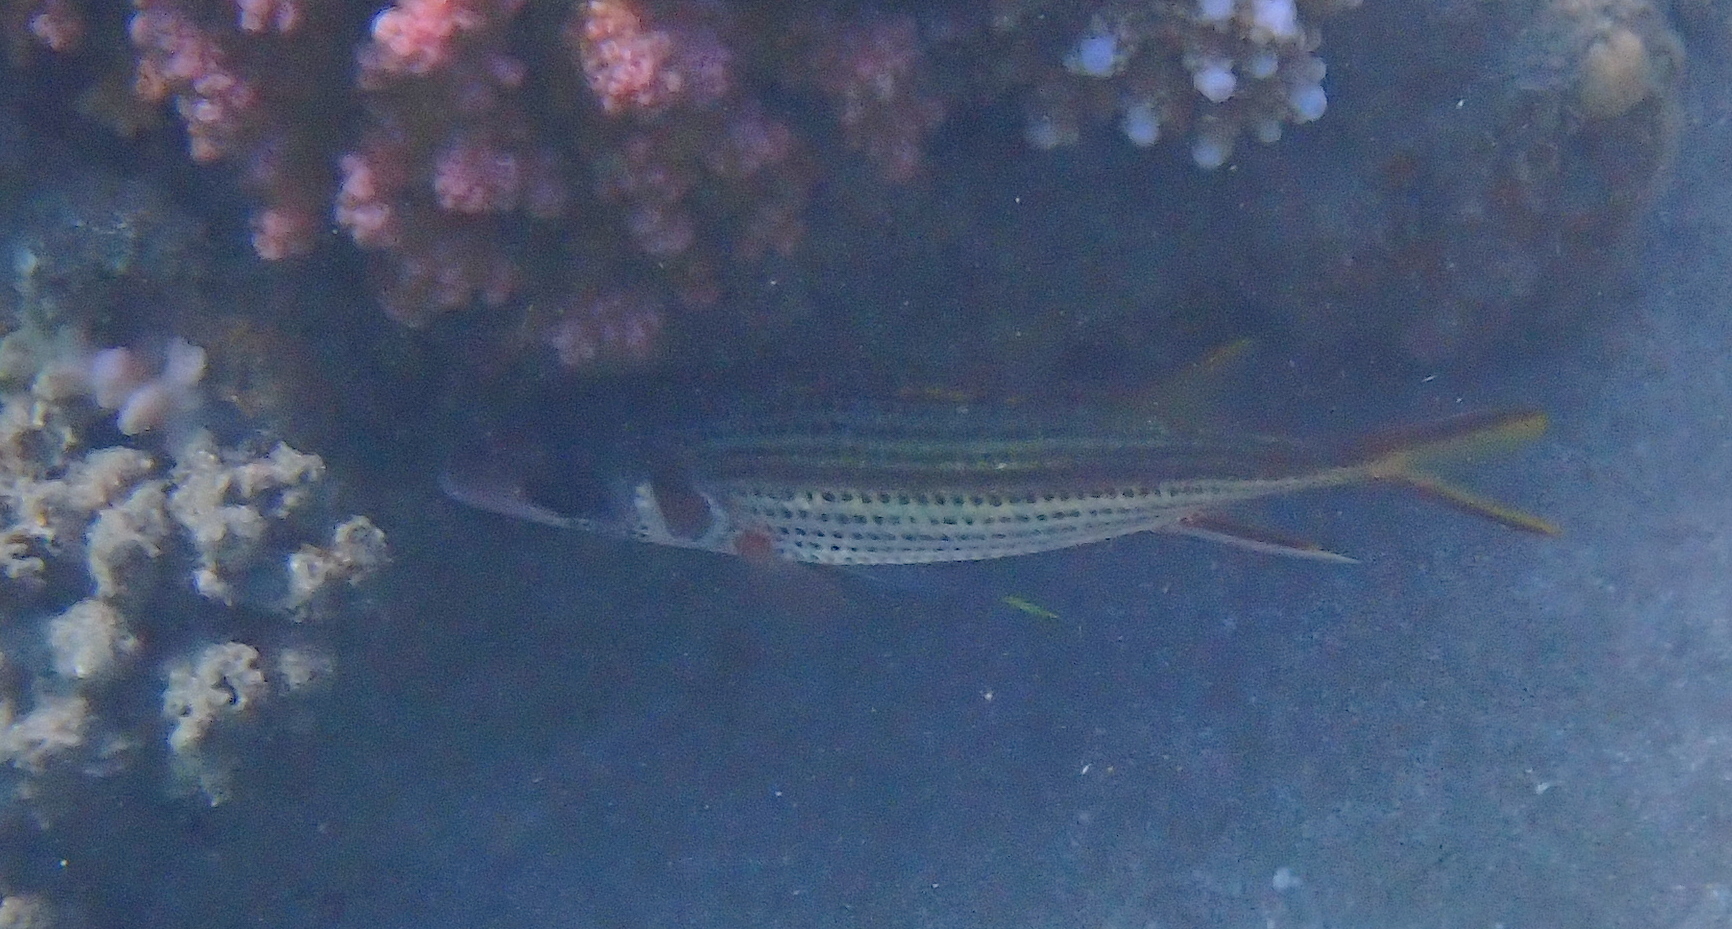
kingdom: Animalia
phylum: Chordata
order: Beryciformes
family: Holocentridae
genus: Neoniphon
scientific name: Neoniphon sammara
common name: Sammara squirrelfish
